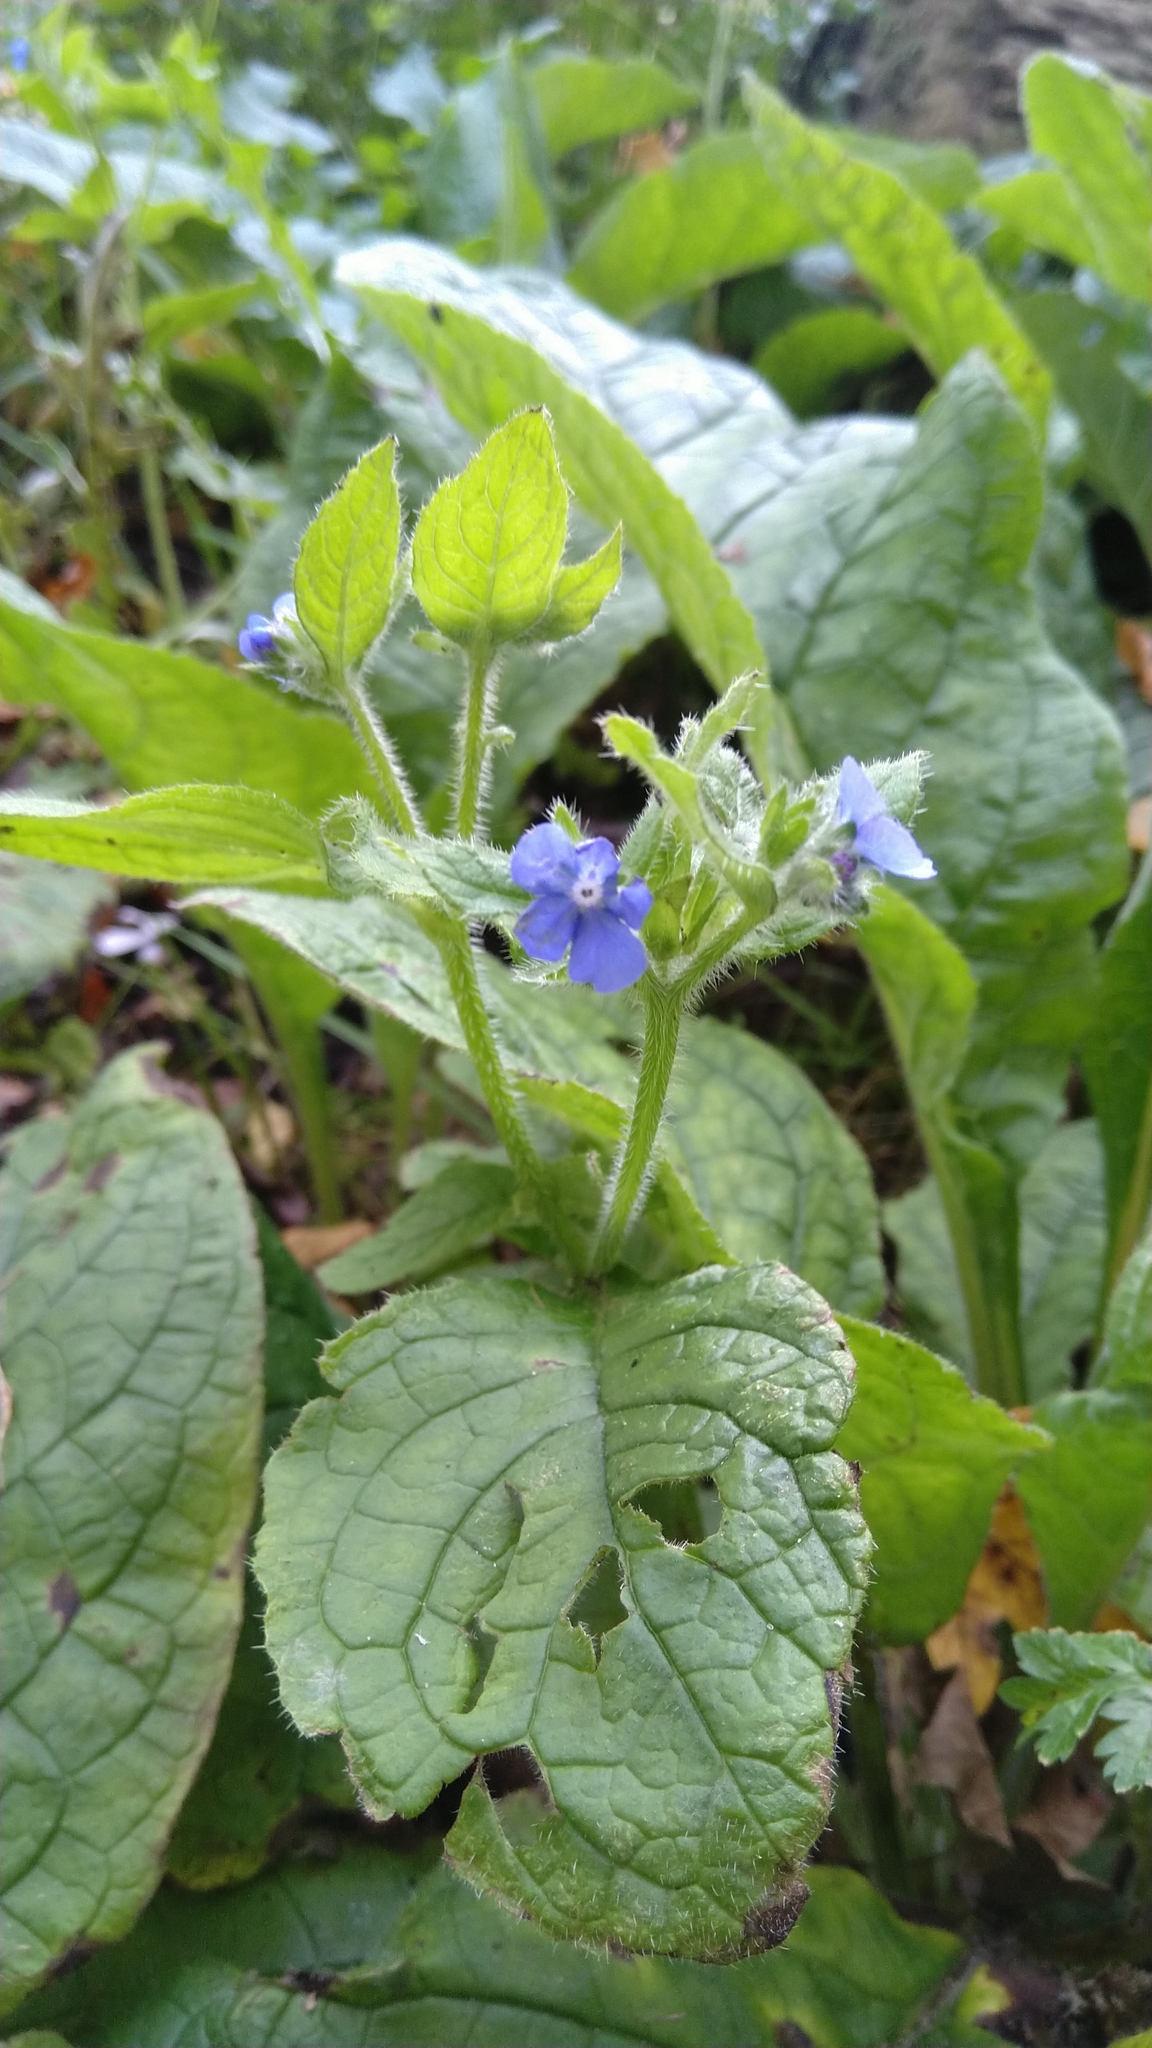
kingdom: Plantae
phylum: Tracheophyta
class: Magnoliopsida
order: Boraginales
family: Boraginaceae
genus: Pentaglottis
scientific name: Pentaglottis sempervirens
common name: Green alkanet
